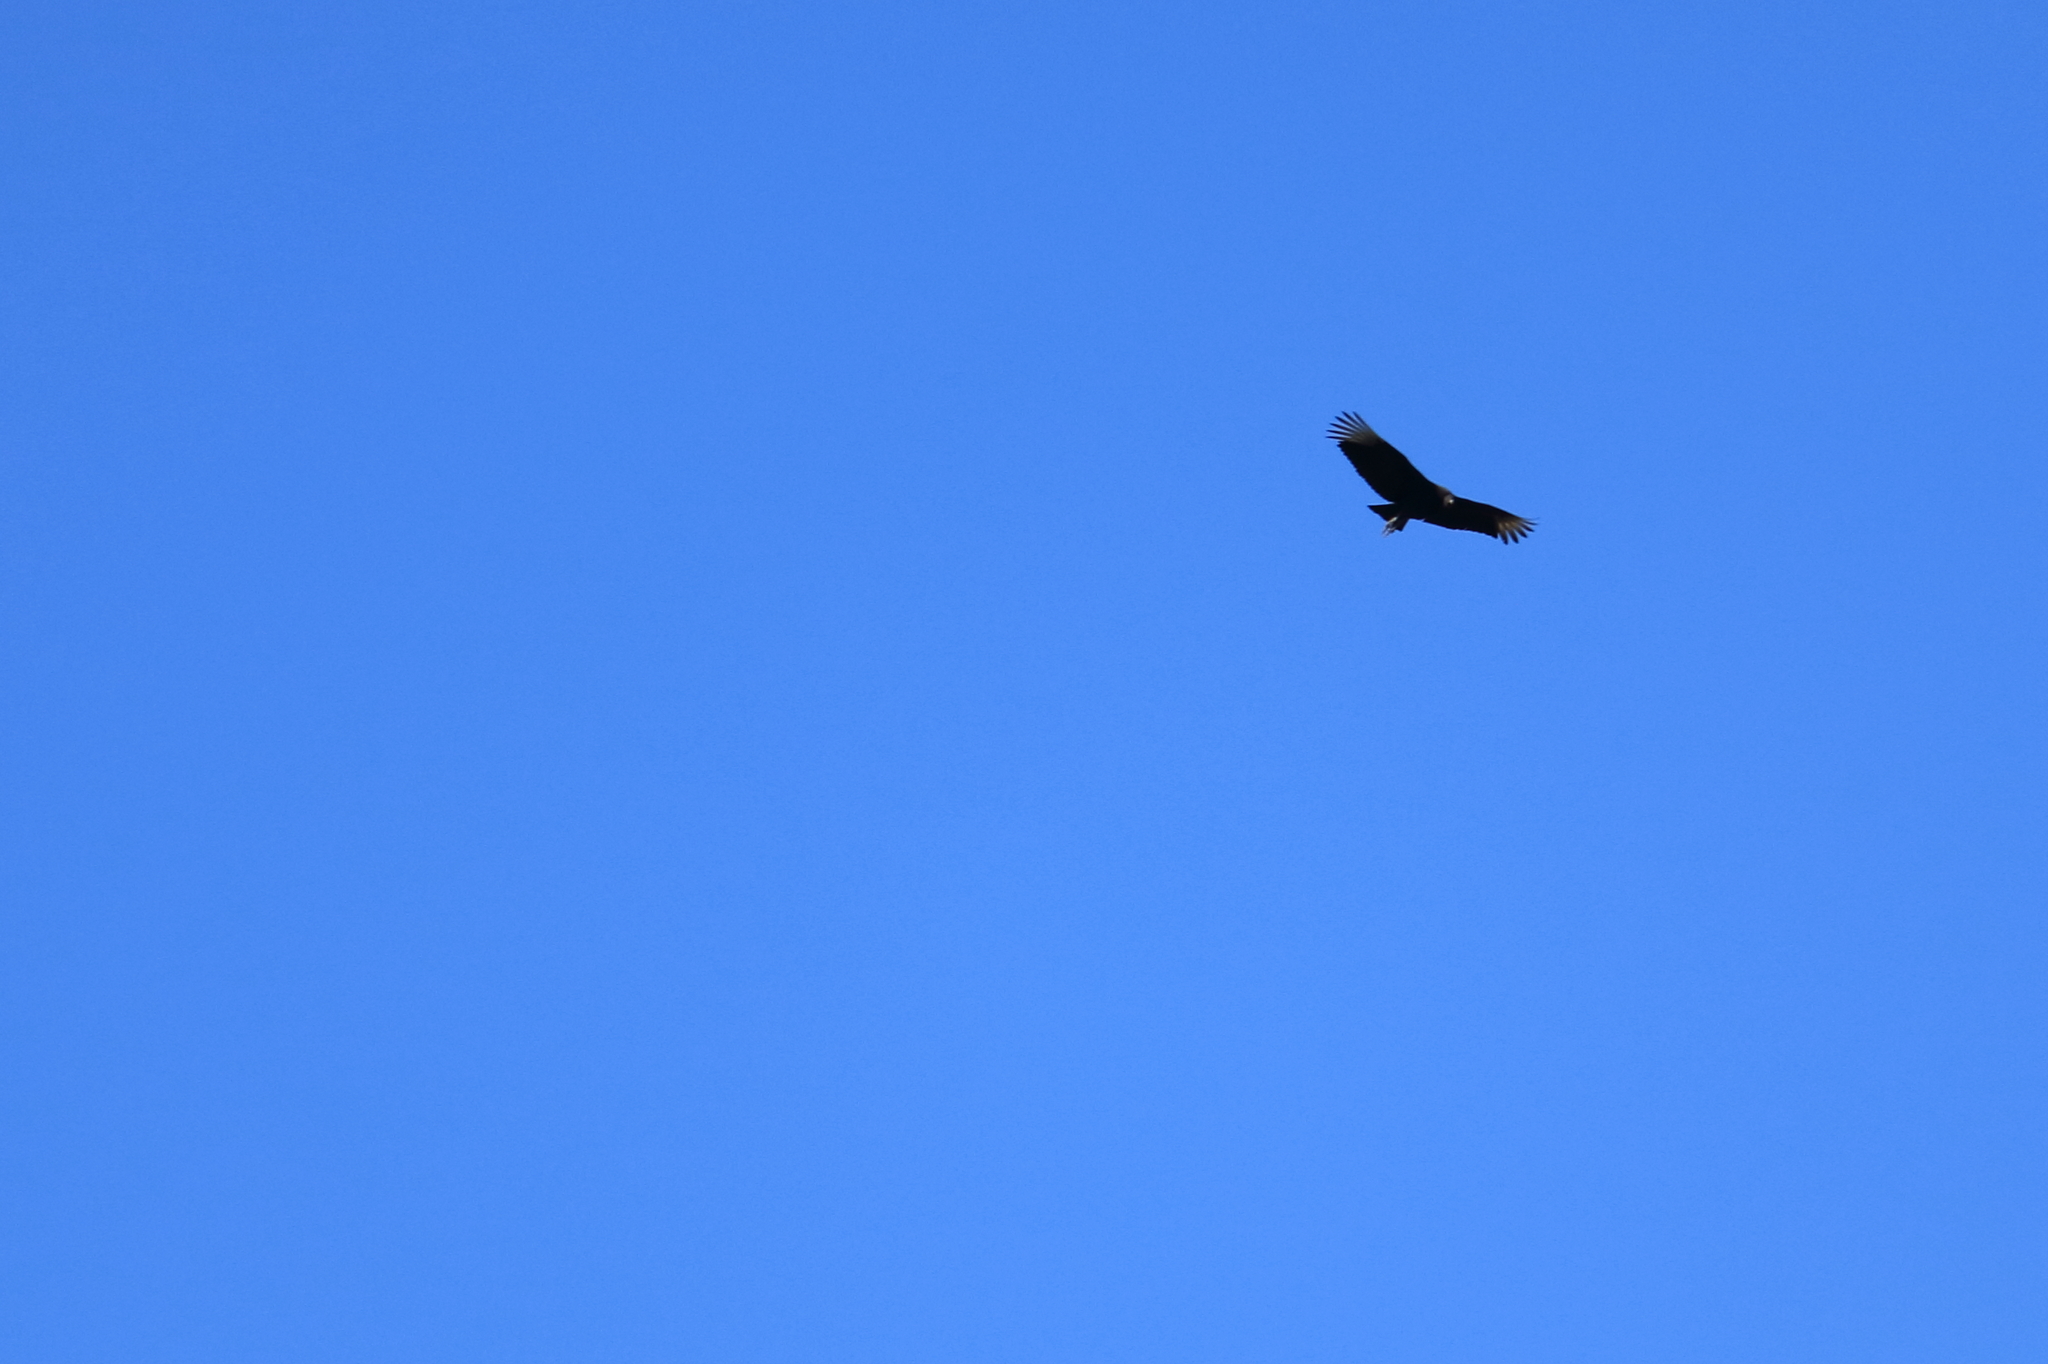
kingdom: Animalia
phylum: Chordata
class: Aves
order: Accipitriformes
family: Cathartidae
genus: Coragyps
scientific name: Coragyps atratus
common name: Black vulture
